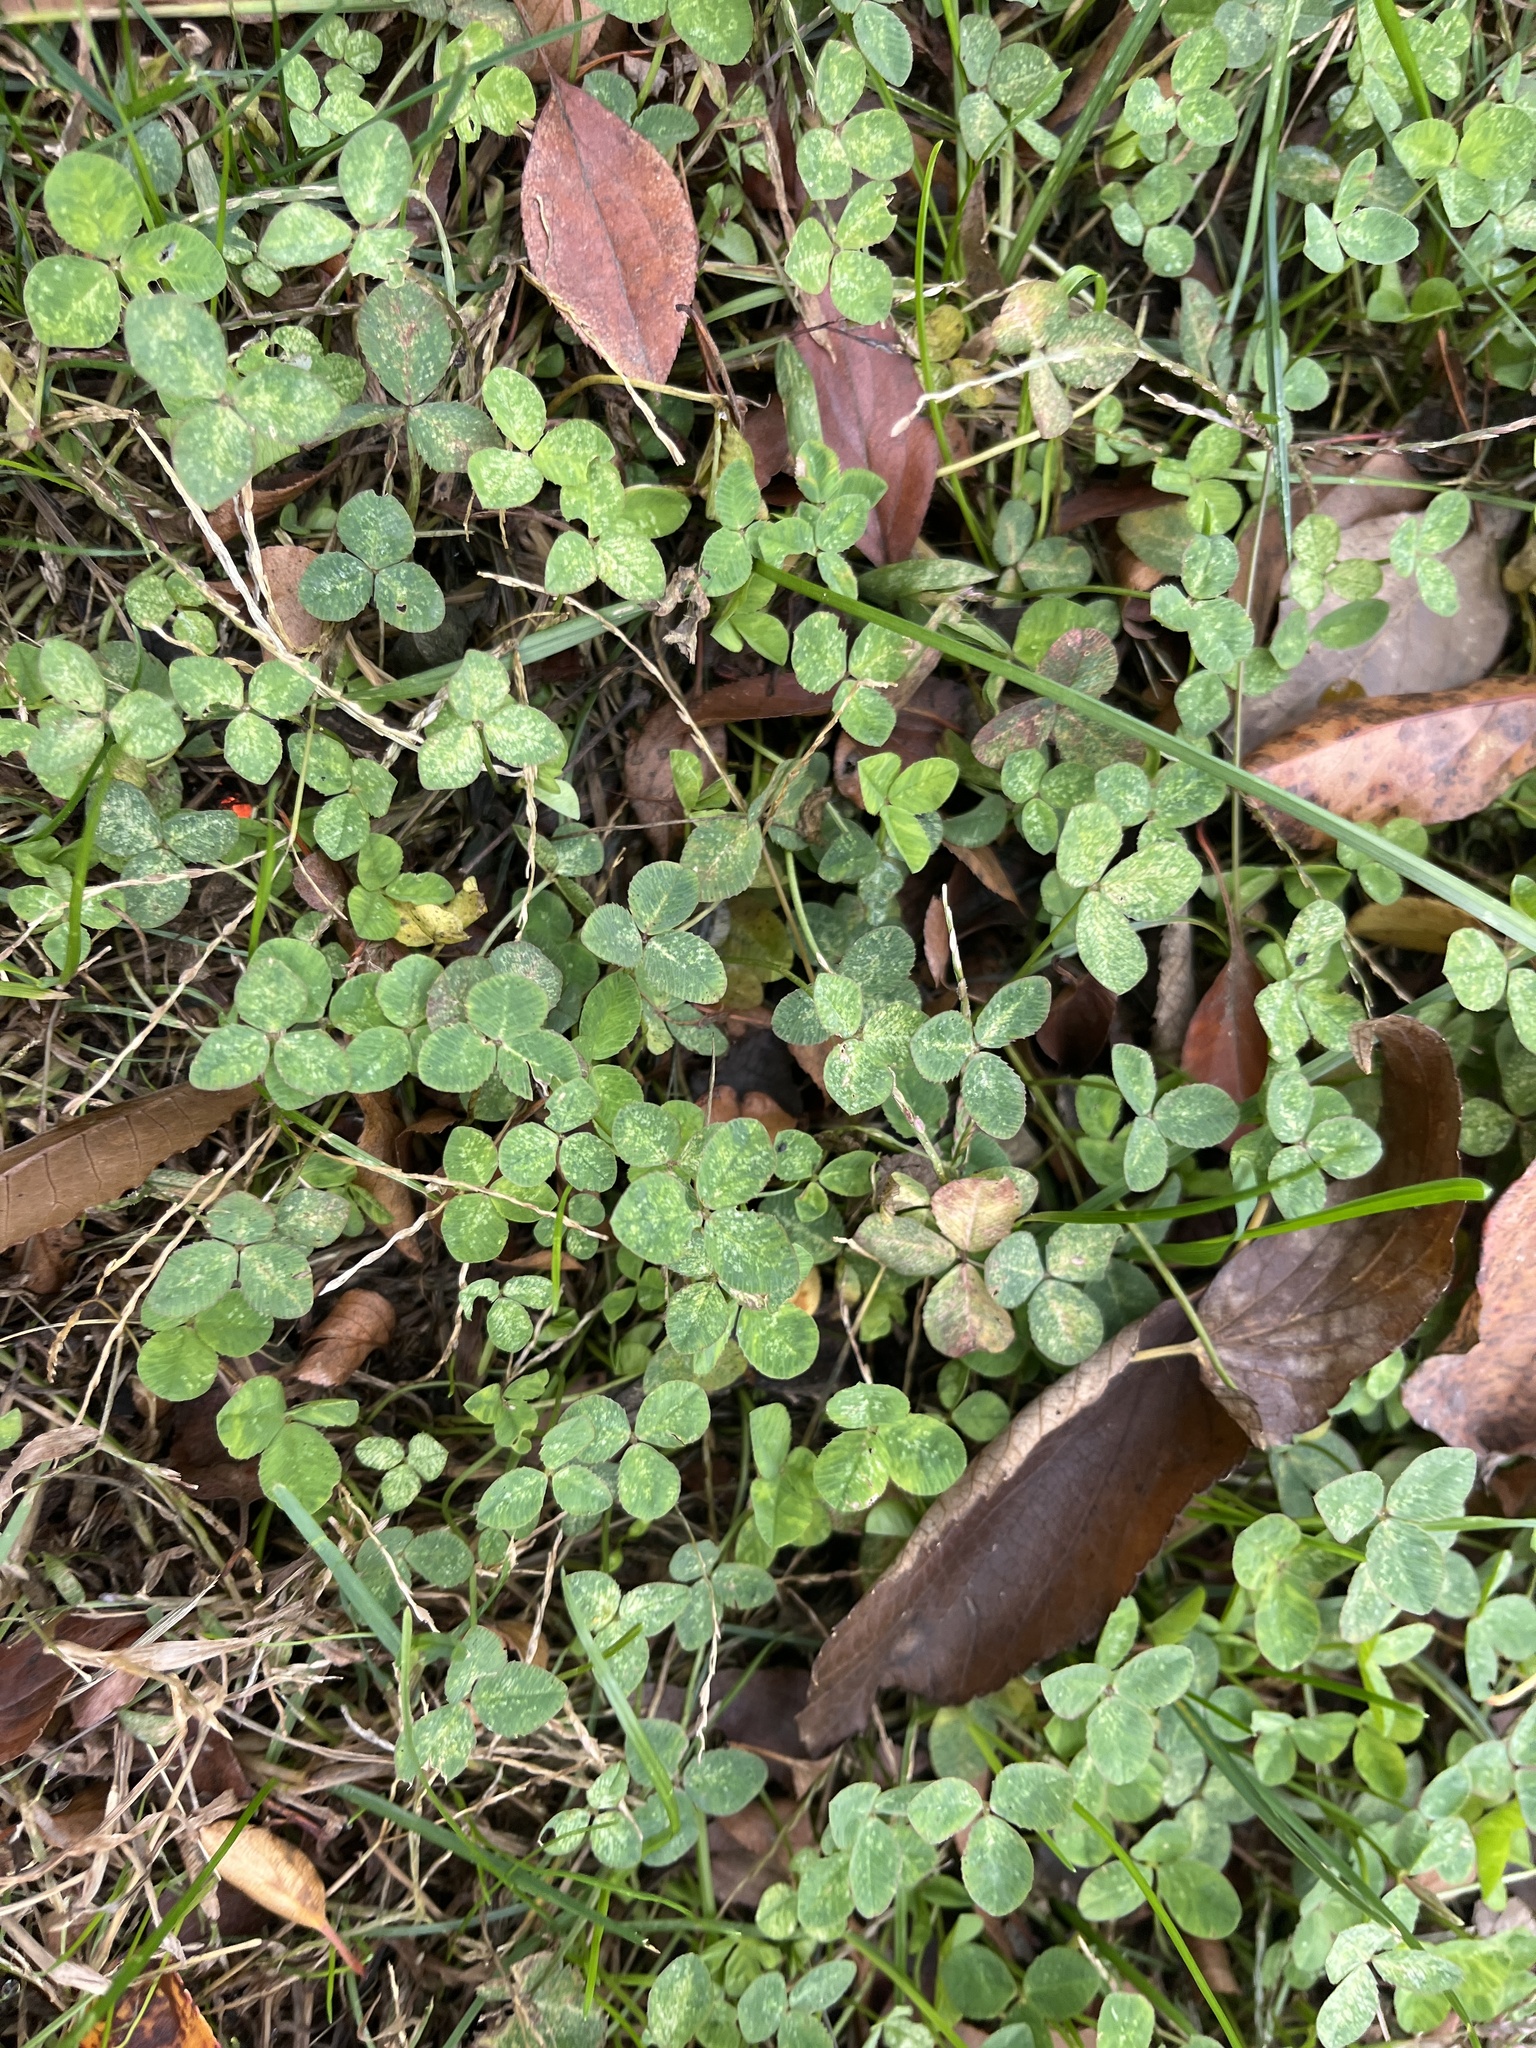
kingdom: Plantae
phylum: Tracheophyta
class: Magnoliopsida
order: Fabales
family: Fabaceae
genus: Trifolium
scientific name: Trifolium repens
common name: White clover
